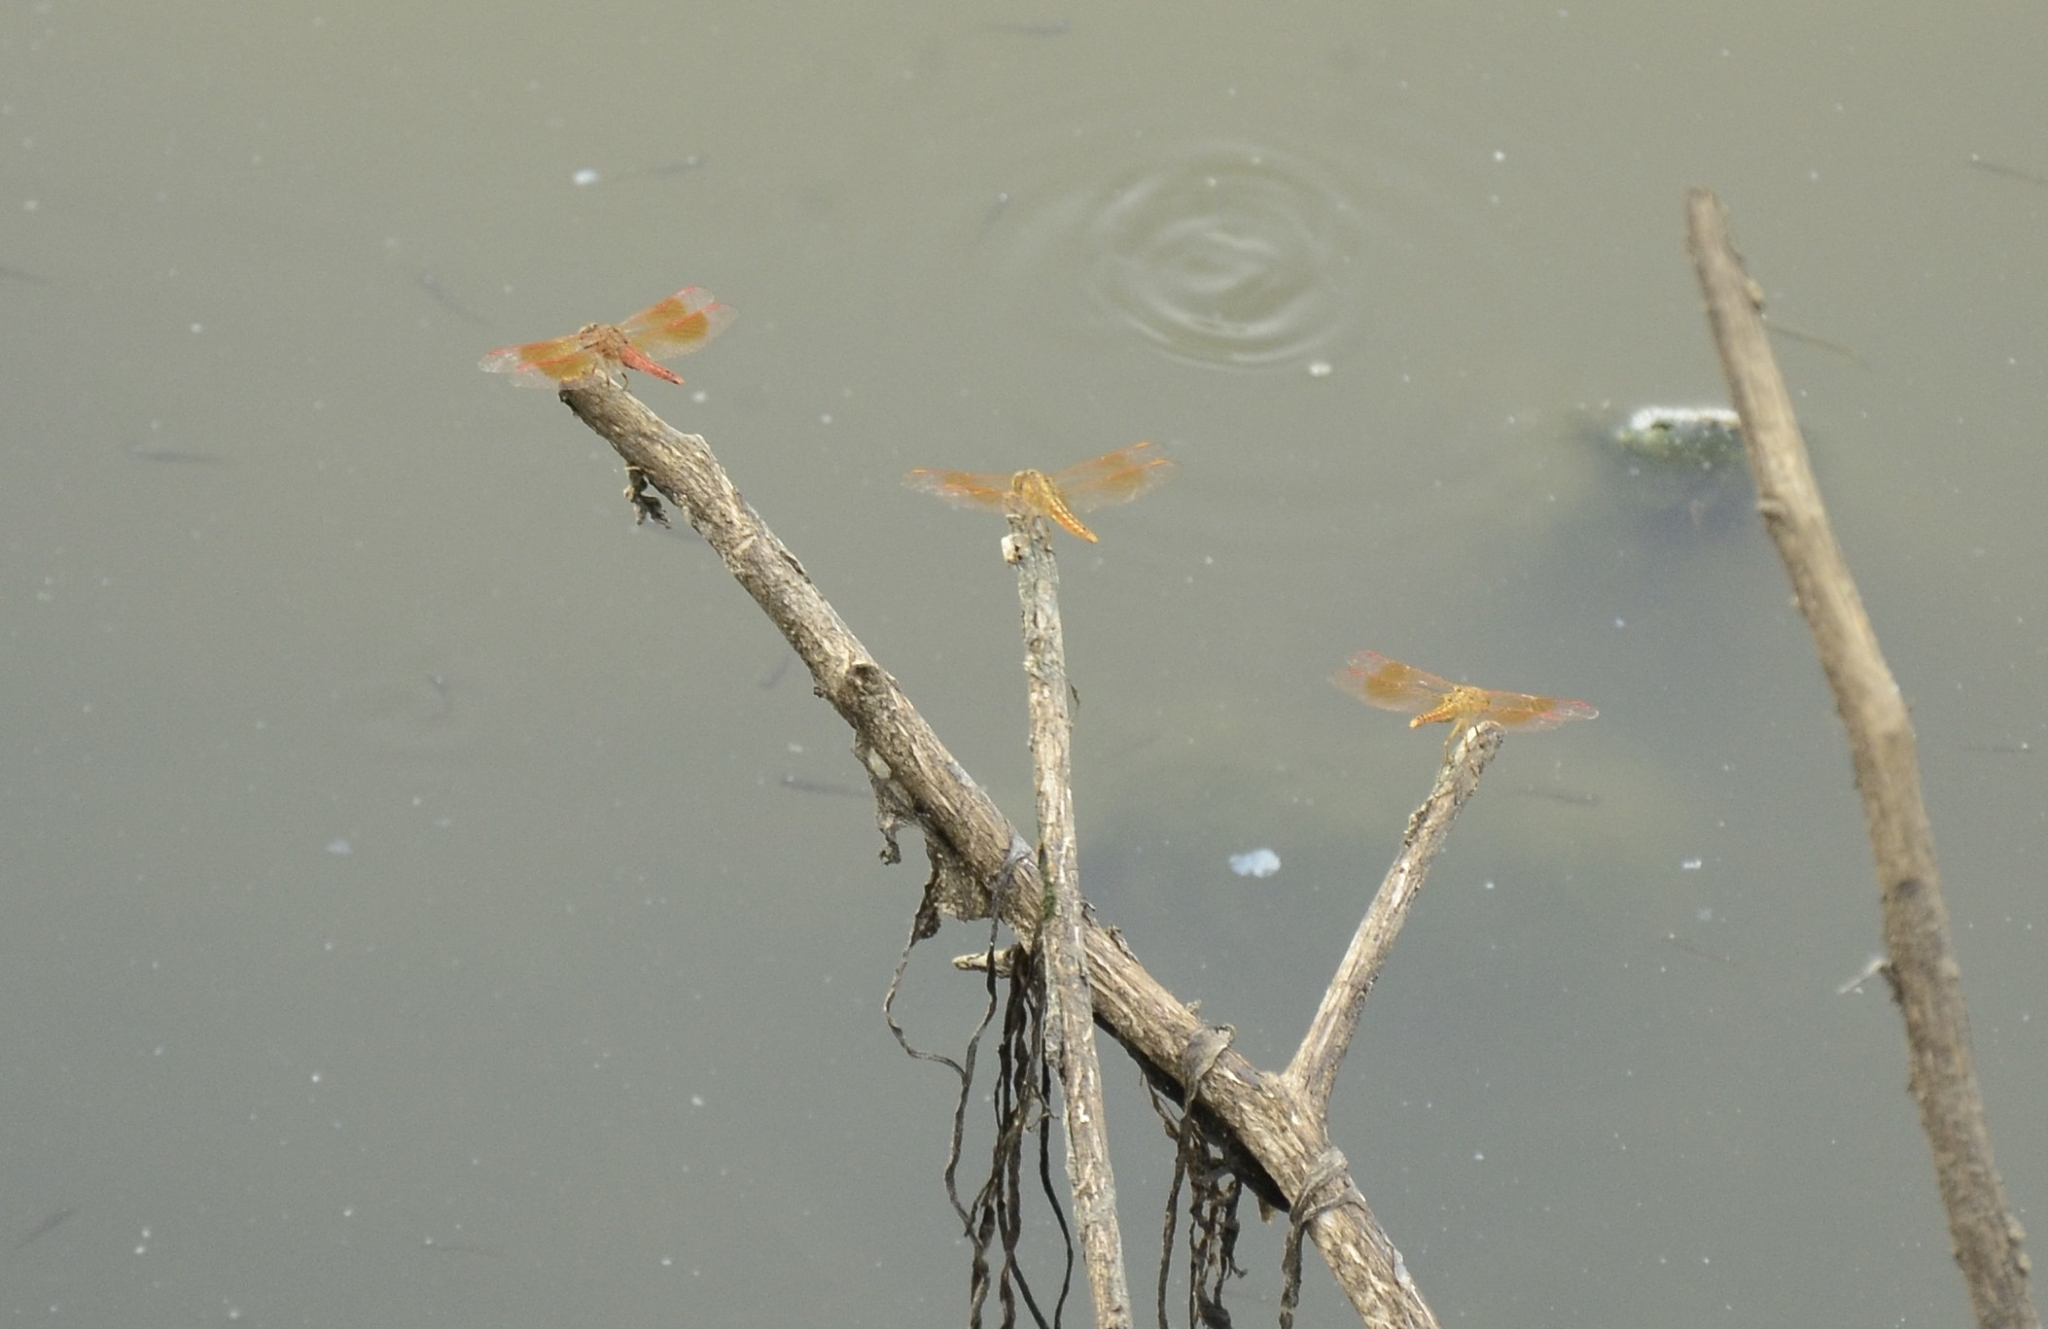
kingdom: Animalia
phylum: Arthropoda
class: Insecta
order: Odonata
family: Libellulidae
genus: Brachythemis
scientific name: Brachythemis contaminata
